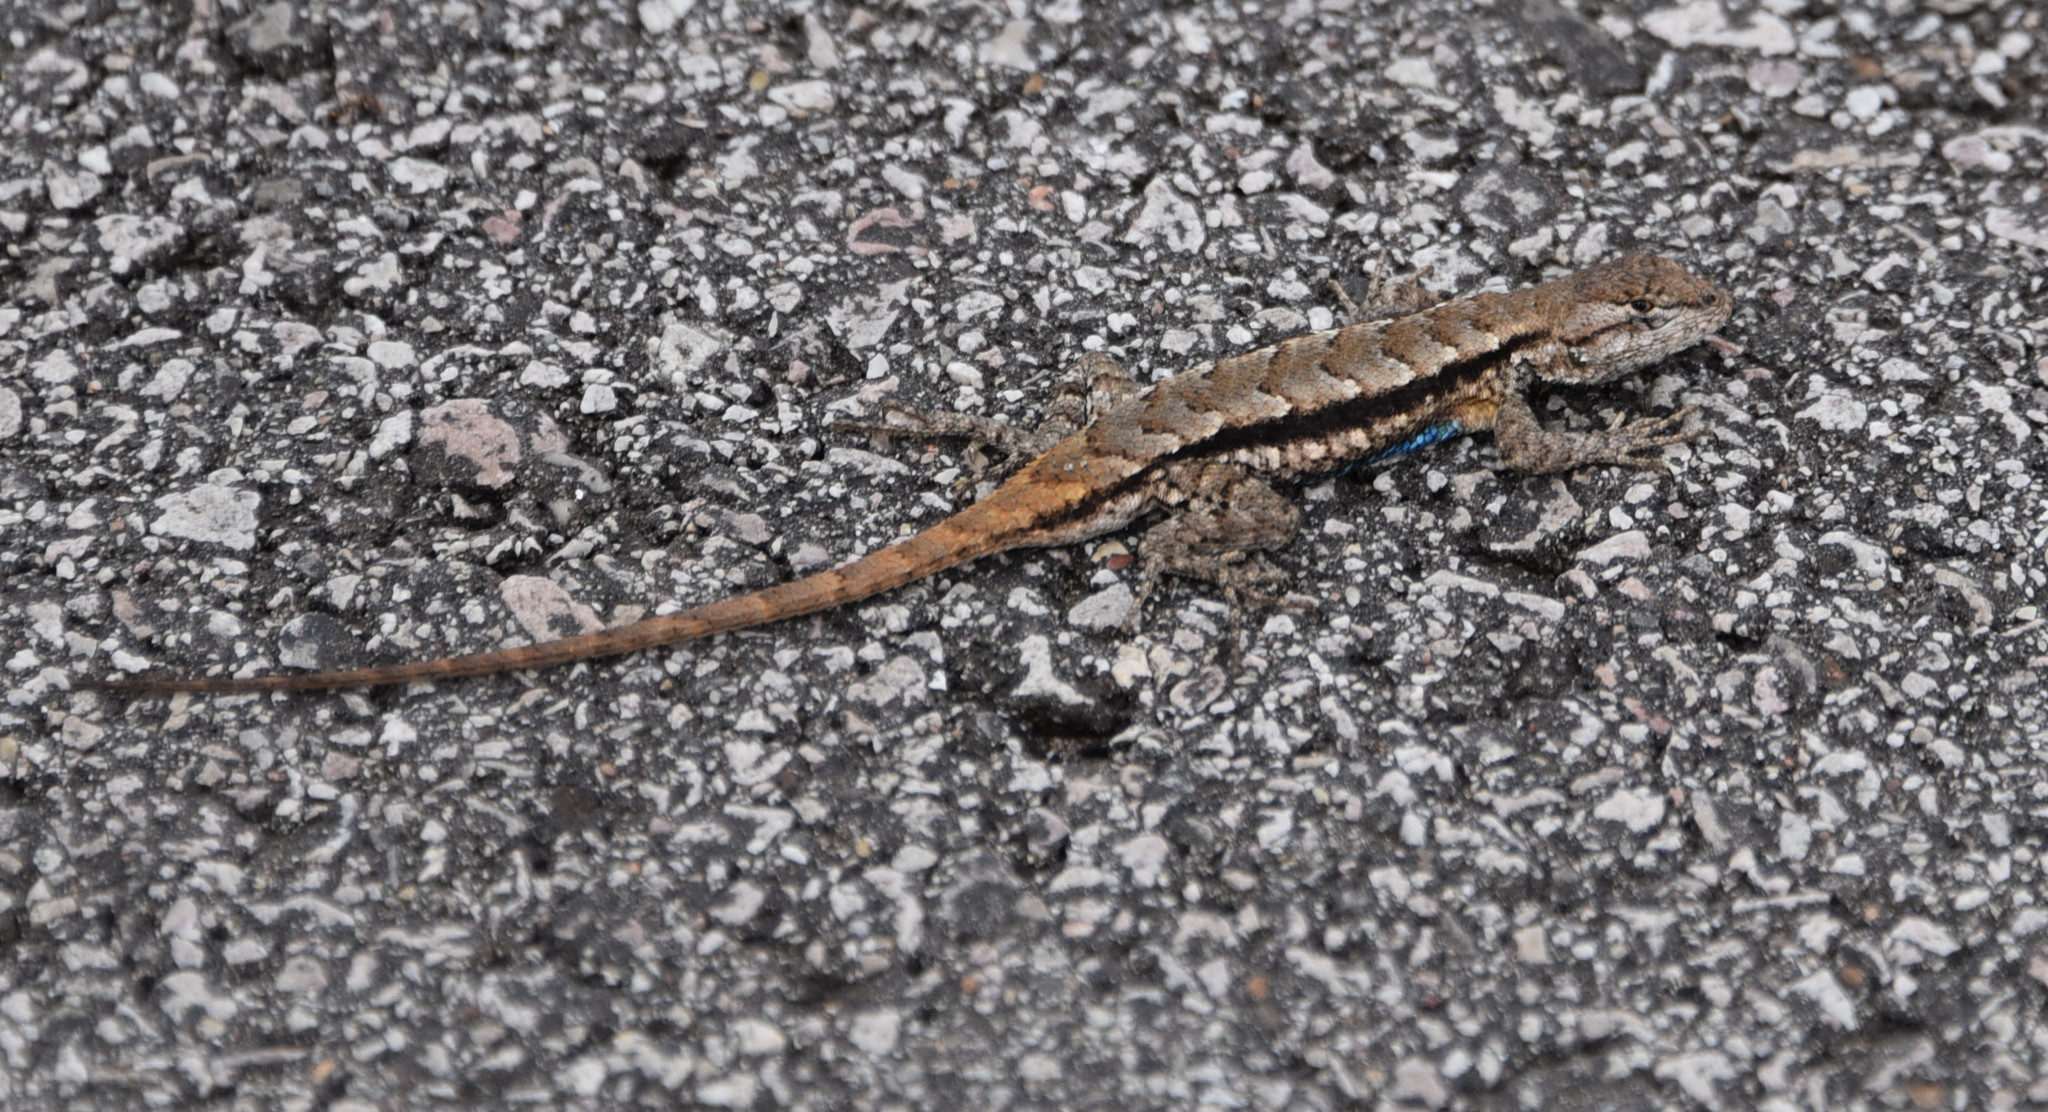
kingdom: Animalia
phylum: Chordata
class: Squamata
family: Phrynosomatidae
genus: Sceloporus
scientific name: Sceloporus consobrinus
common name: Southern prairie lizard
